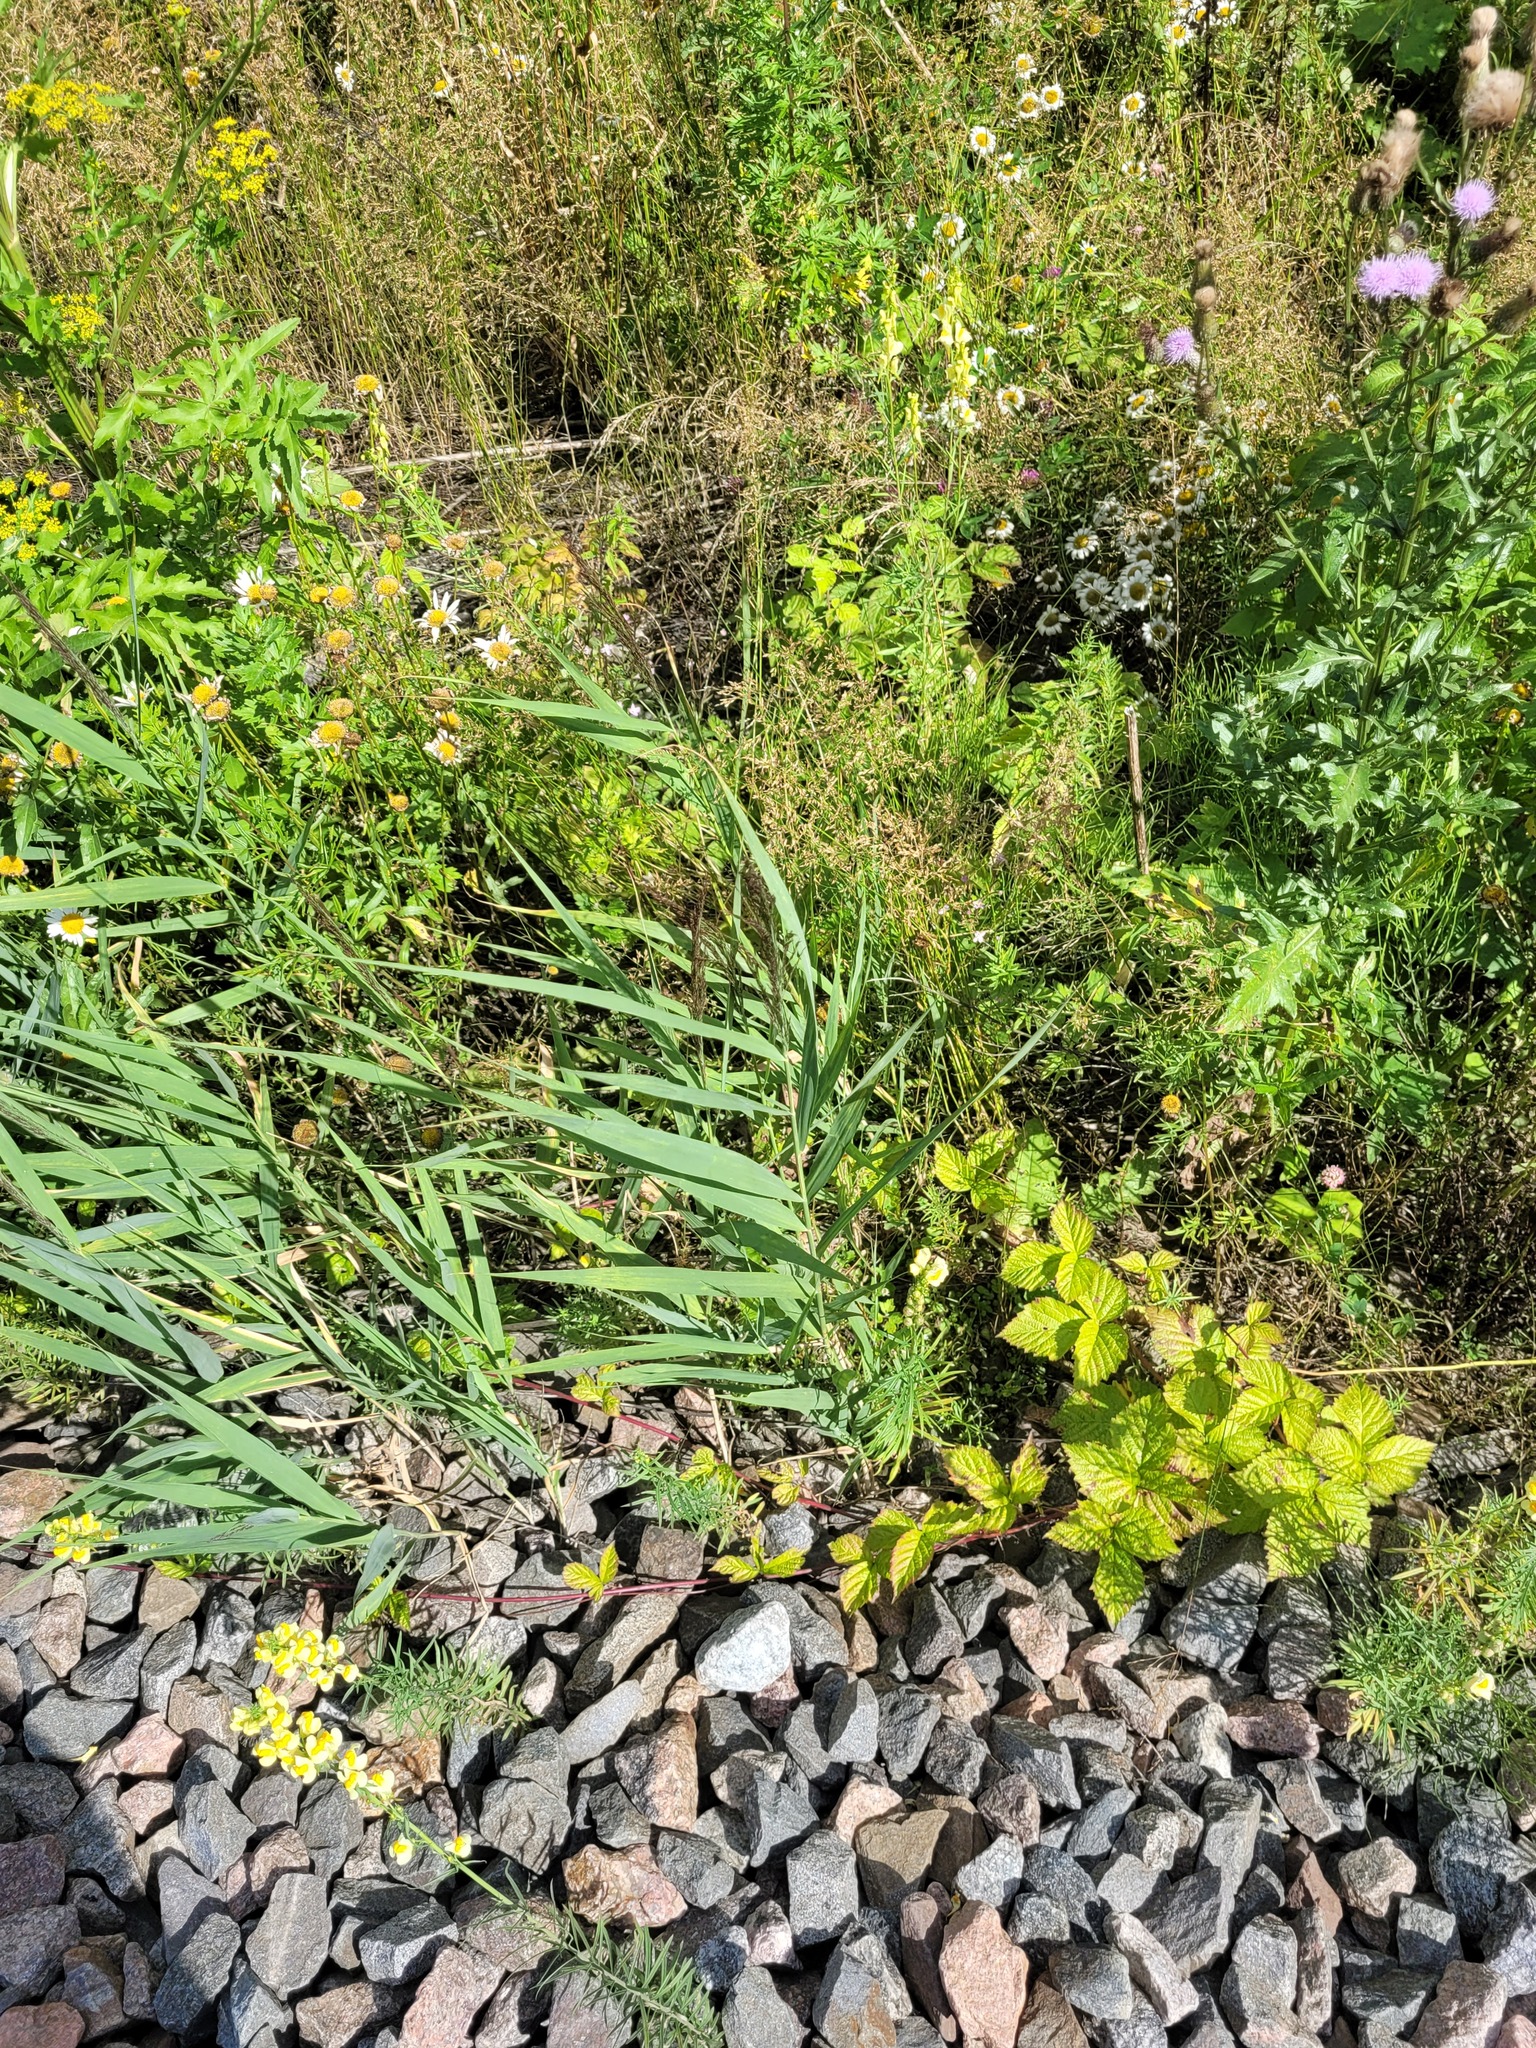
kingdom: Plantae
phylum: Tracheophyta
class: Liliopsida
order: Poales
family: Poaceae
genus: Phragmites
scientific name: Phragmites australis
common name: Common reed
